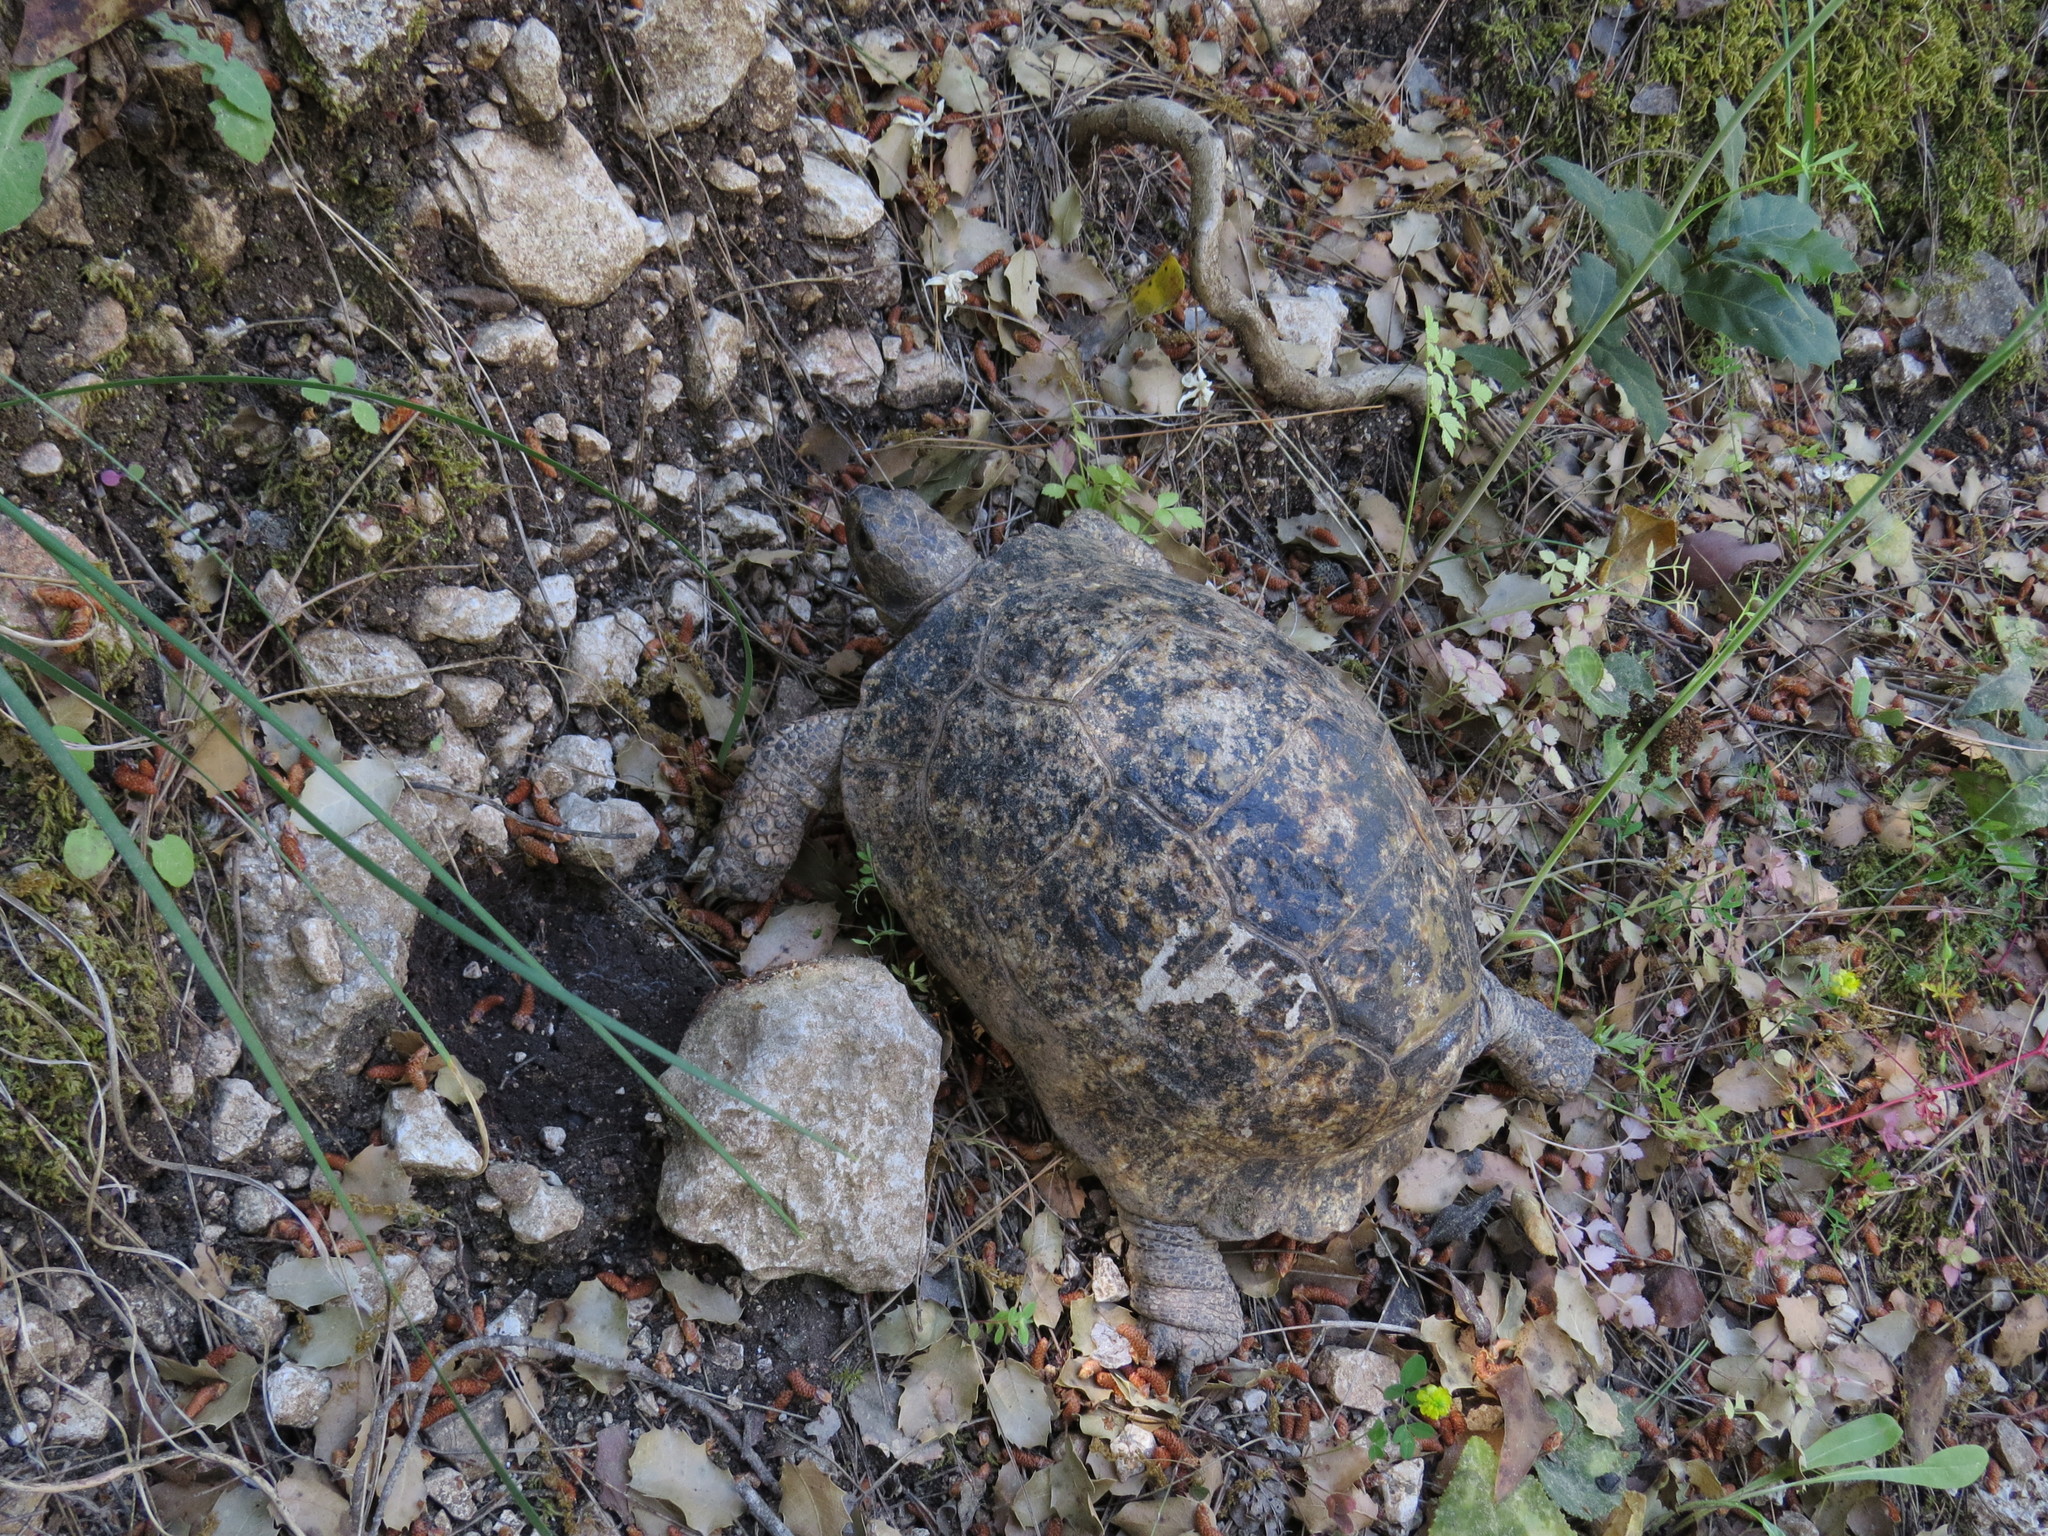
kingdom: Animalia
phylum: Chordata
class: Testudines
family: Testudinidae
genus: Testudo
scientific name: Testudo graeca
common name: Common tortoise
